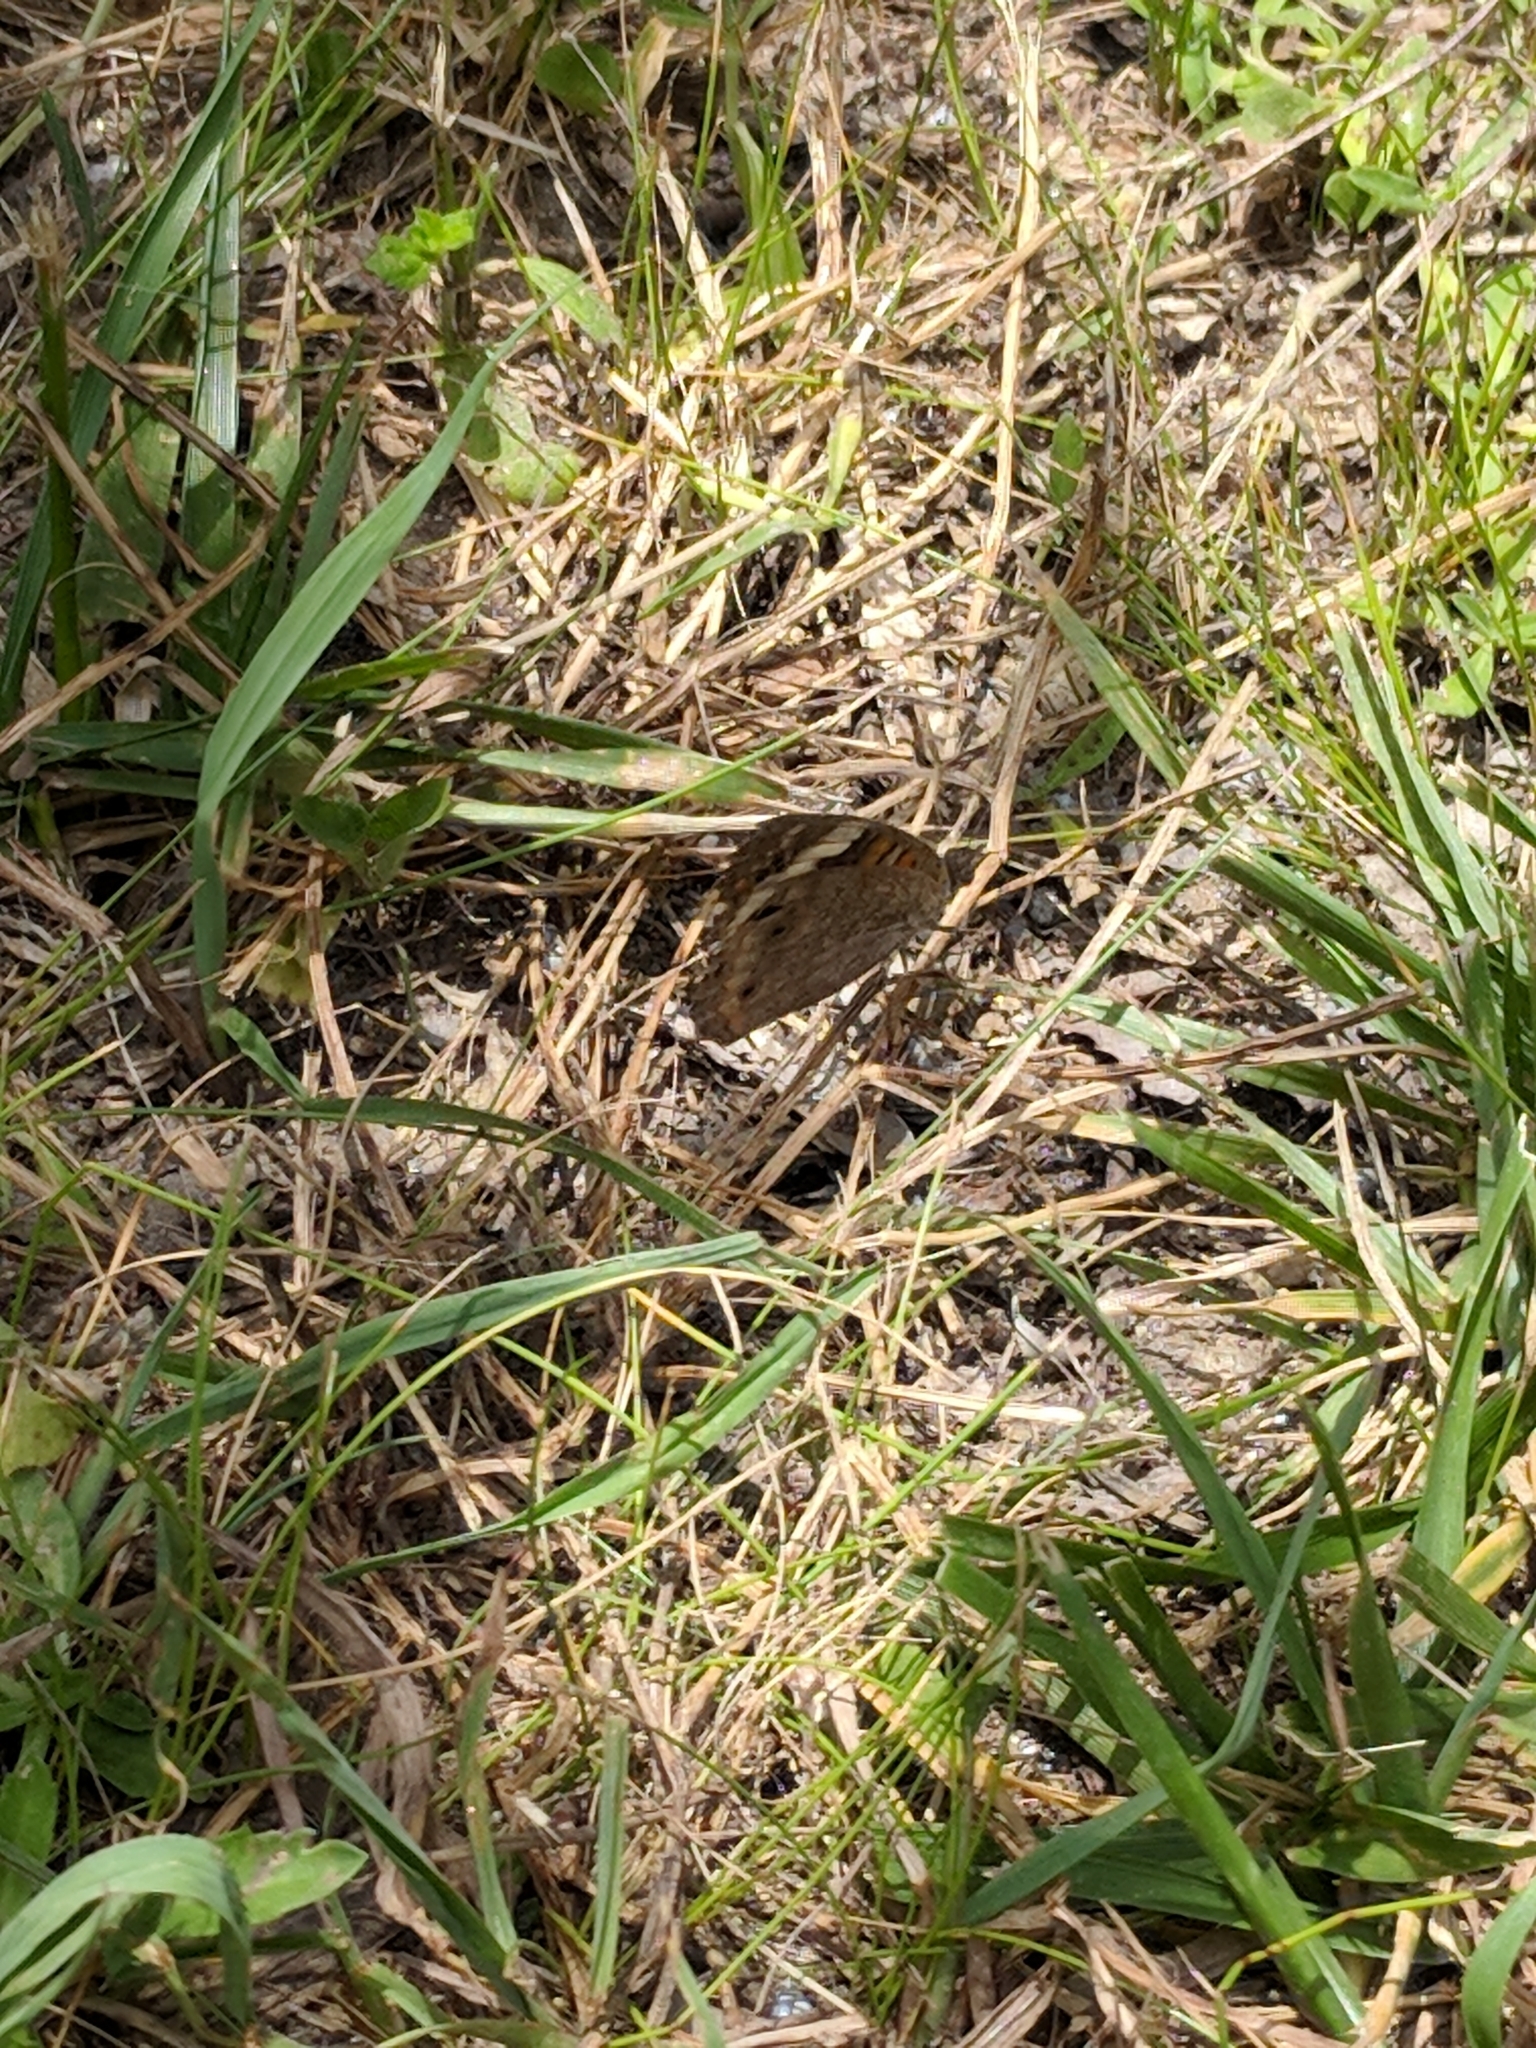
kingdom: Animalia
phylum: Arthropoda
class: Insecta
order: Lepidoptera
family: Nymphalidae
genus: Junonia
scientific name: Junonia coenia
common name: Common buckeye
